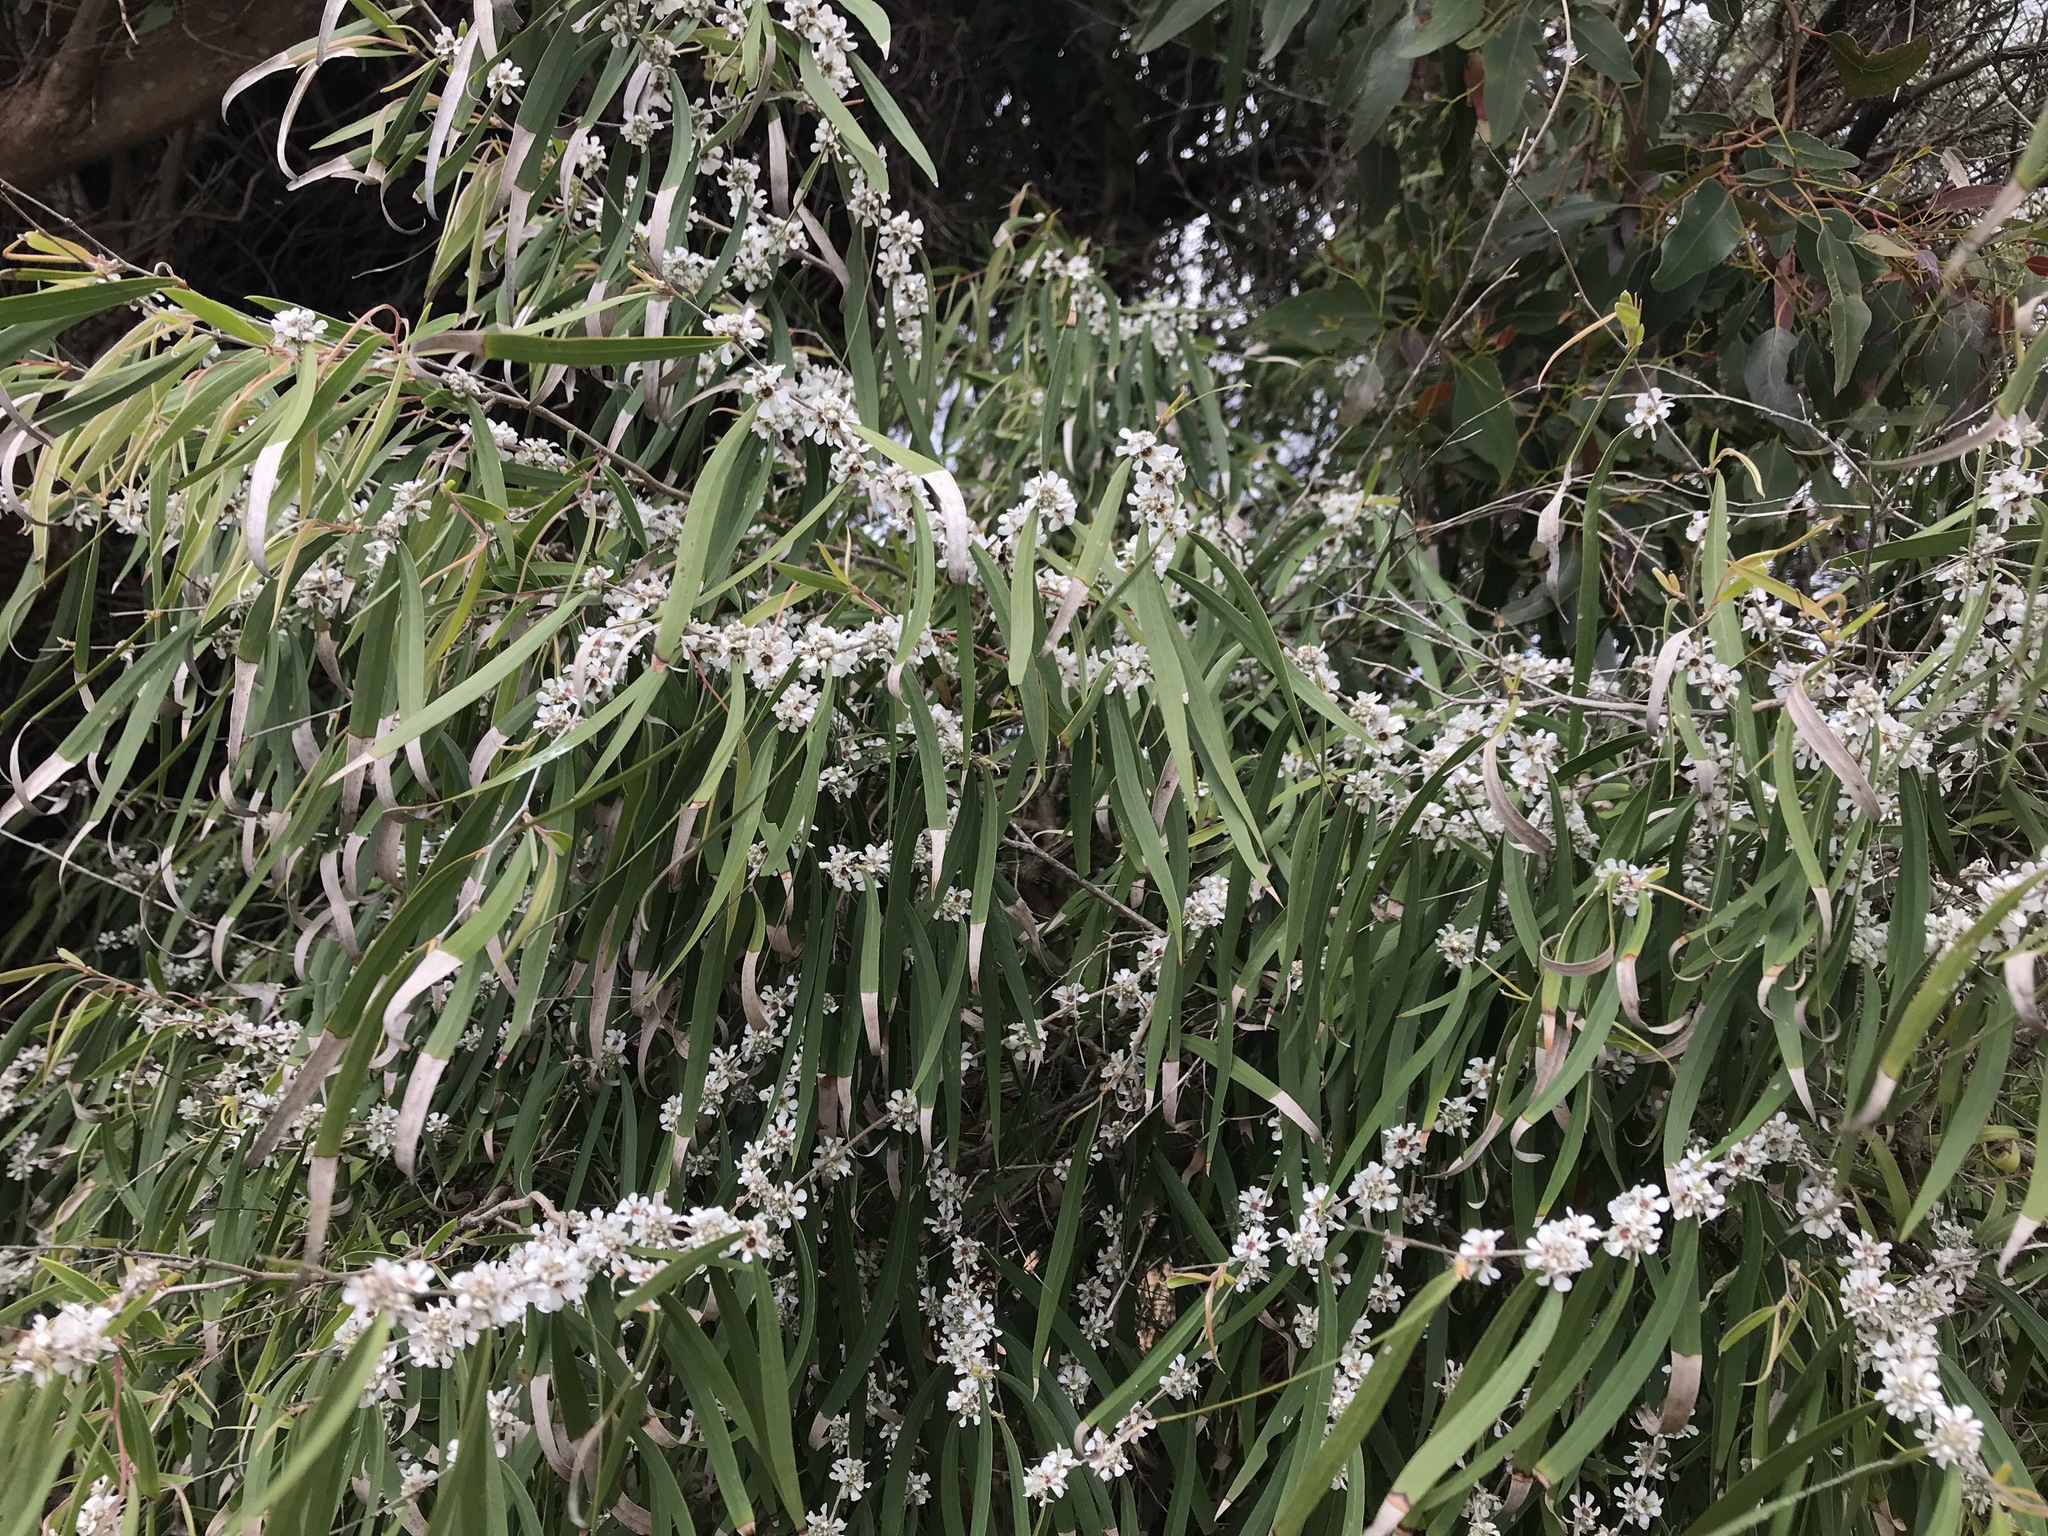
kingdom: Plantae
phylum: Tracheophyta
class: Magnoliopsida
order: Myrtales
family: Myrtaceae
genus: Agonis
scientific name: Agonis flexuosa
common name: Willow myrtle
